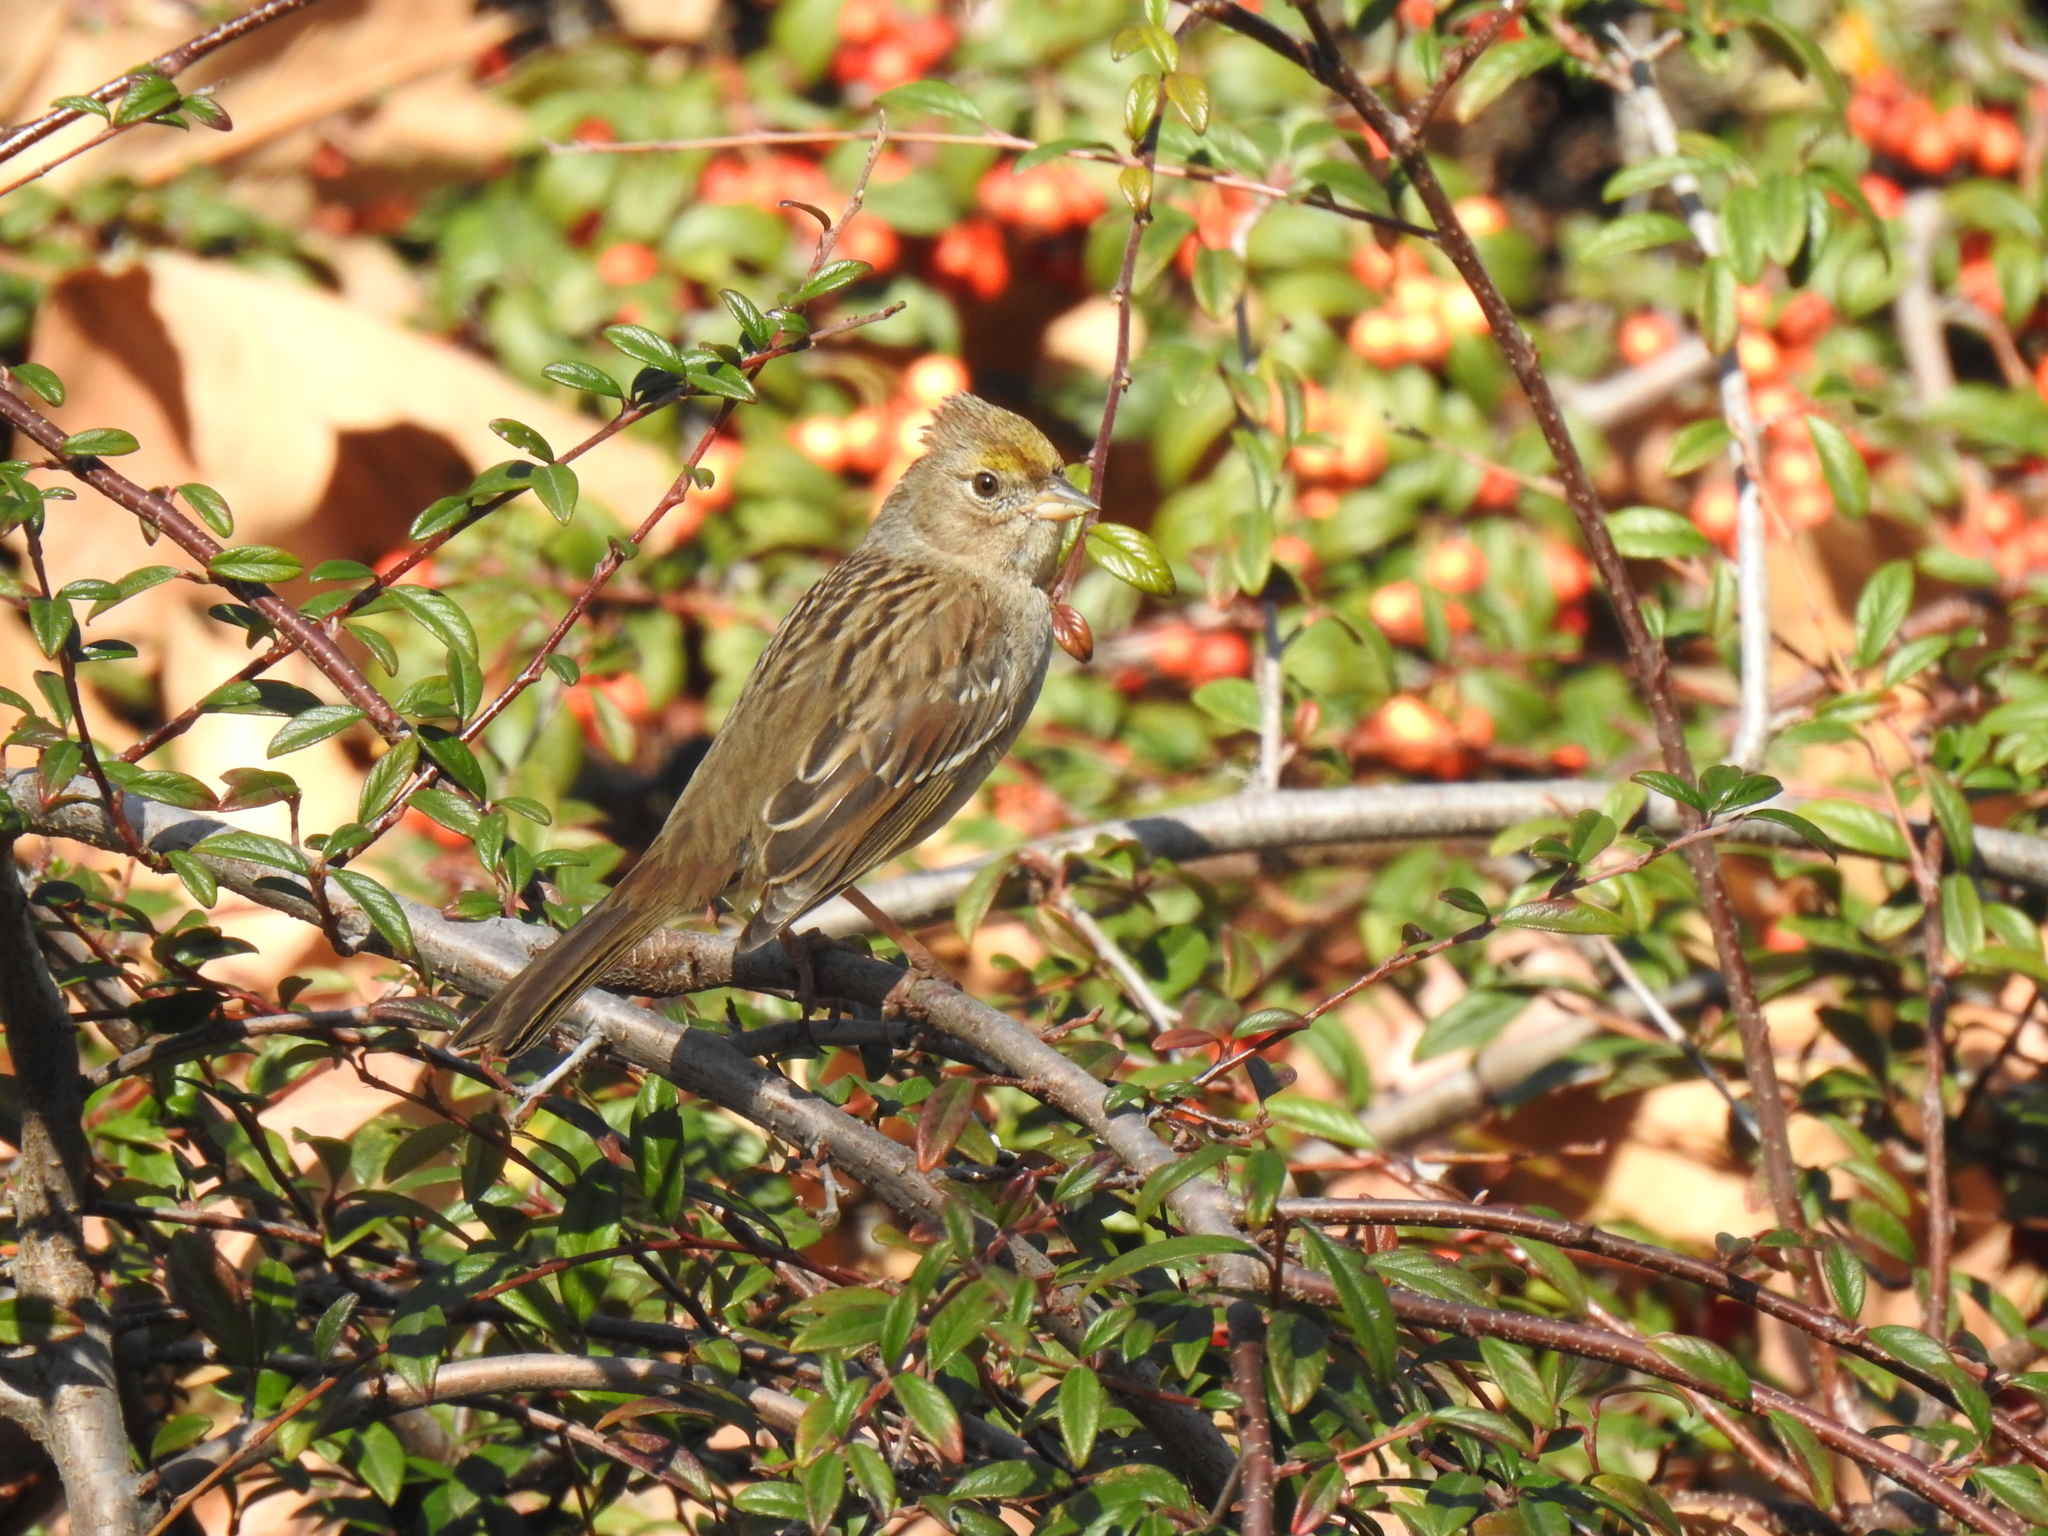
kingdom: Animalia
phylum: Chordata
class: Aves
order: Passeriformes
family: Passerellidae
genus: Zonotrichia
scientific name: Zonotrichia atricapilla
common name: Golden-crowned sparrow
